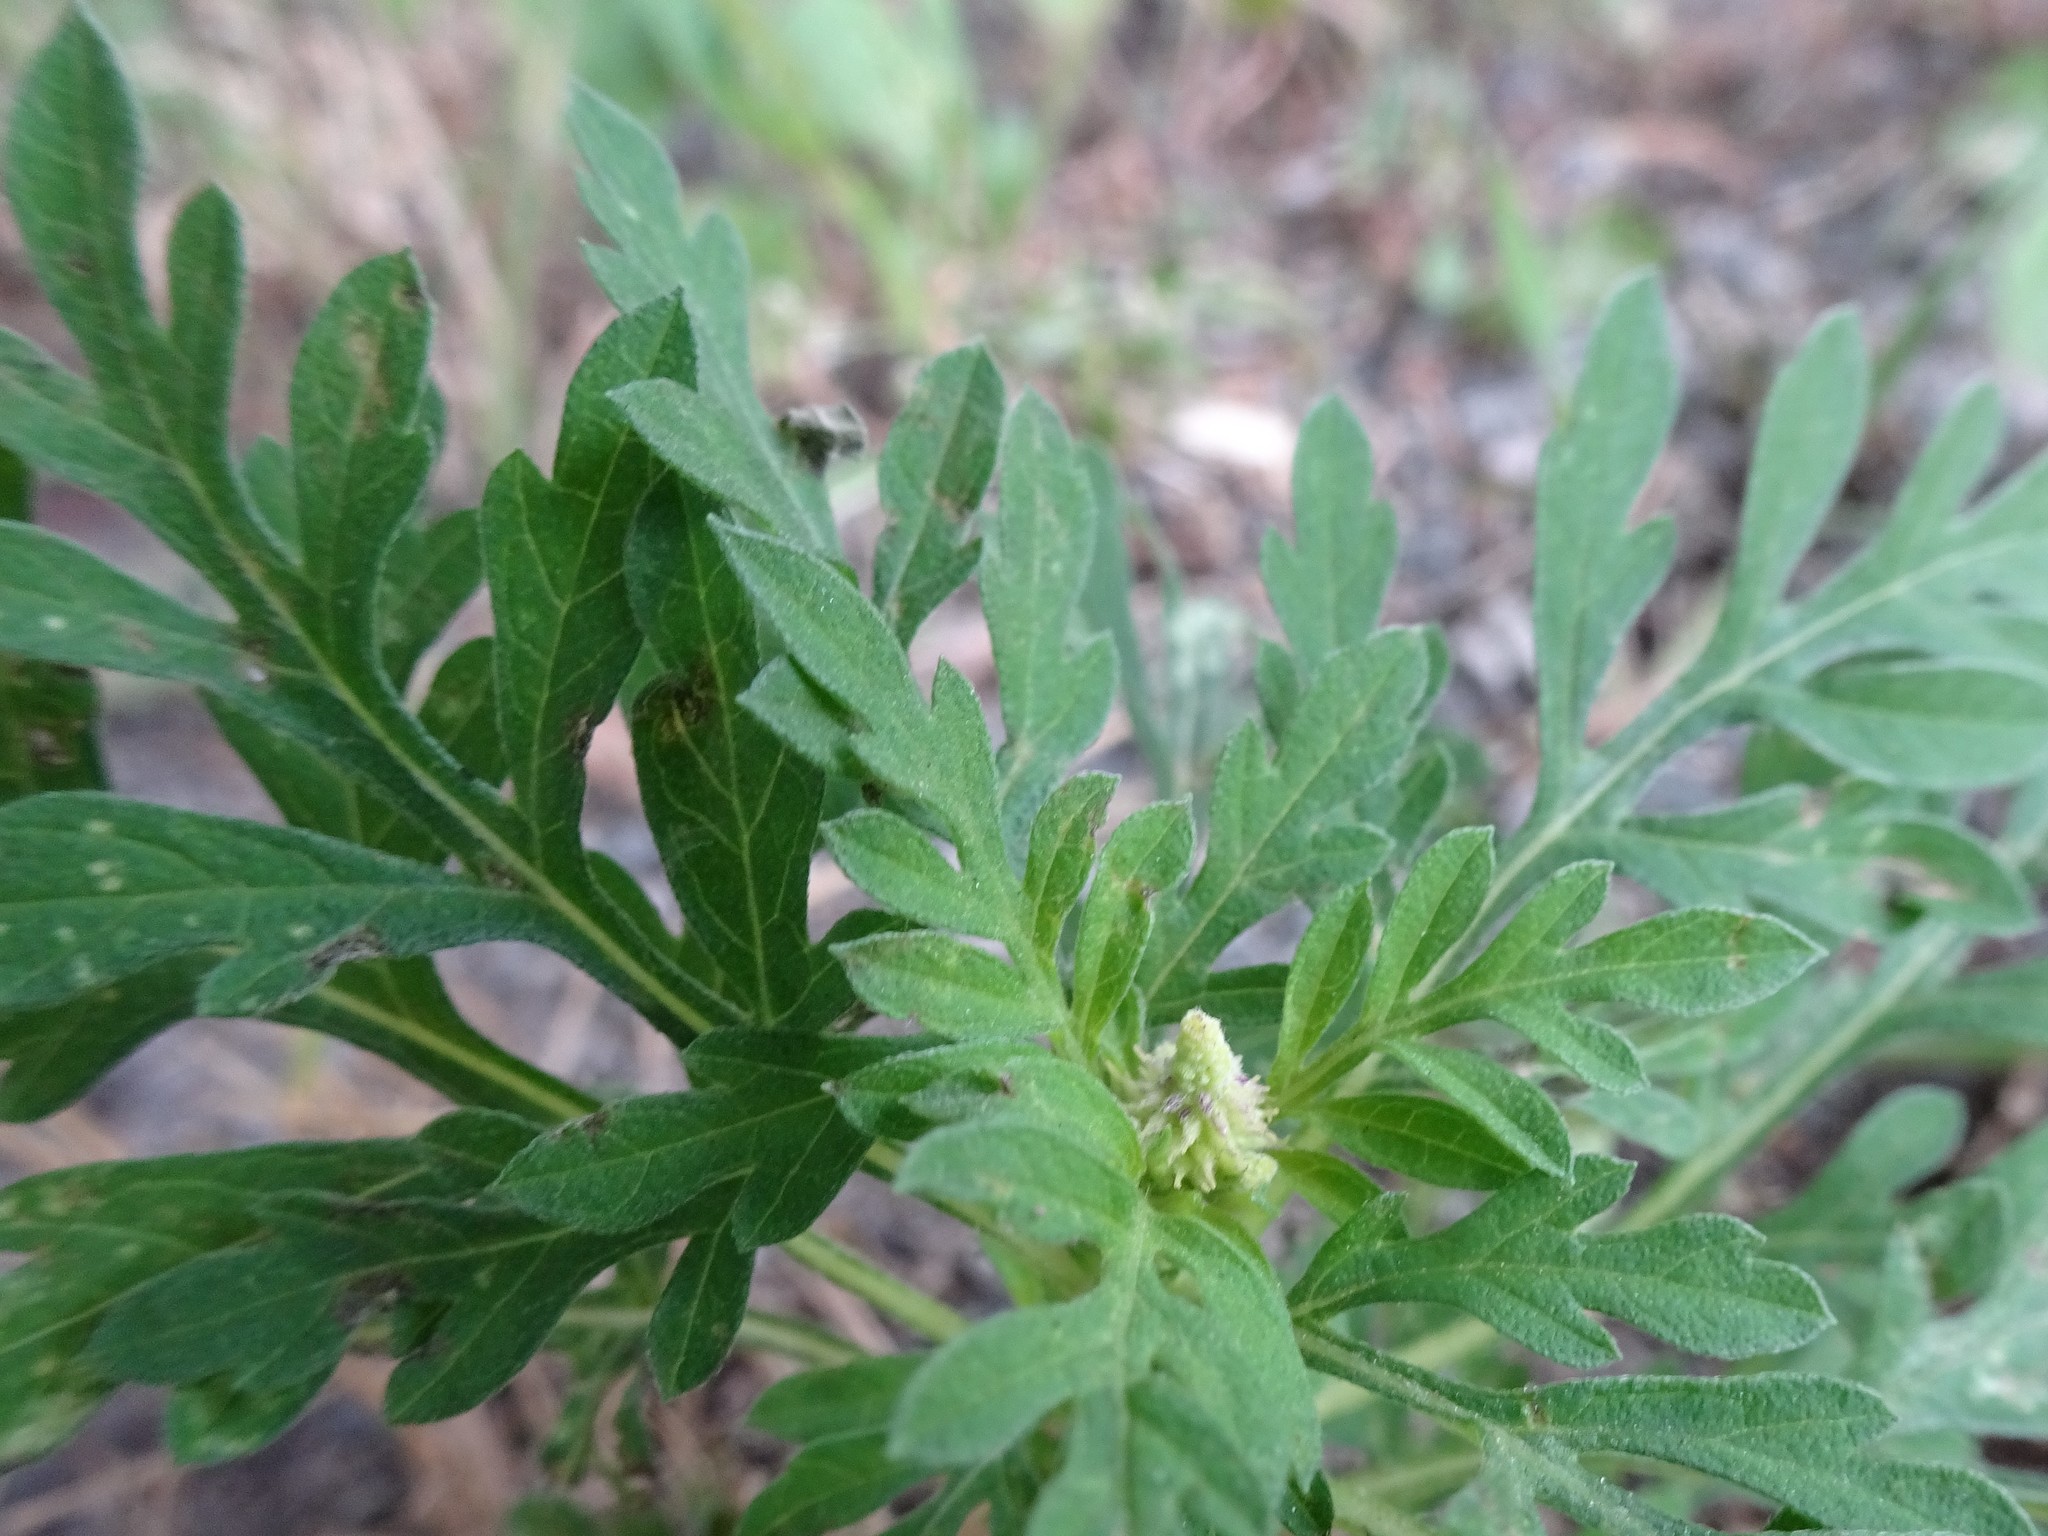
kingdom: Plantae
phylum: Tracheophyta
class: Magnoliopsida
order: Asterales
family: Asteraceae
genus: Ambrosia
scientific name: Ambrosia artemisiifolia
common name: Annual ragweed
